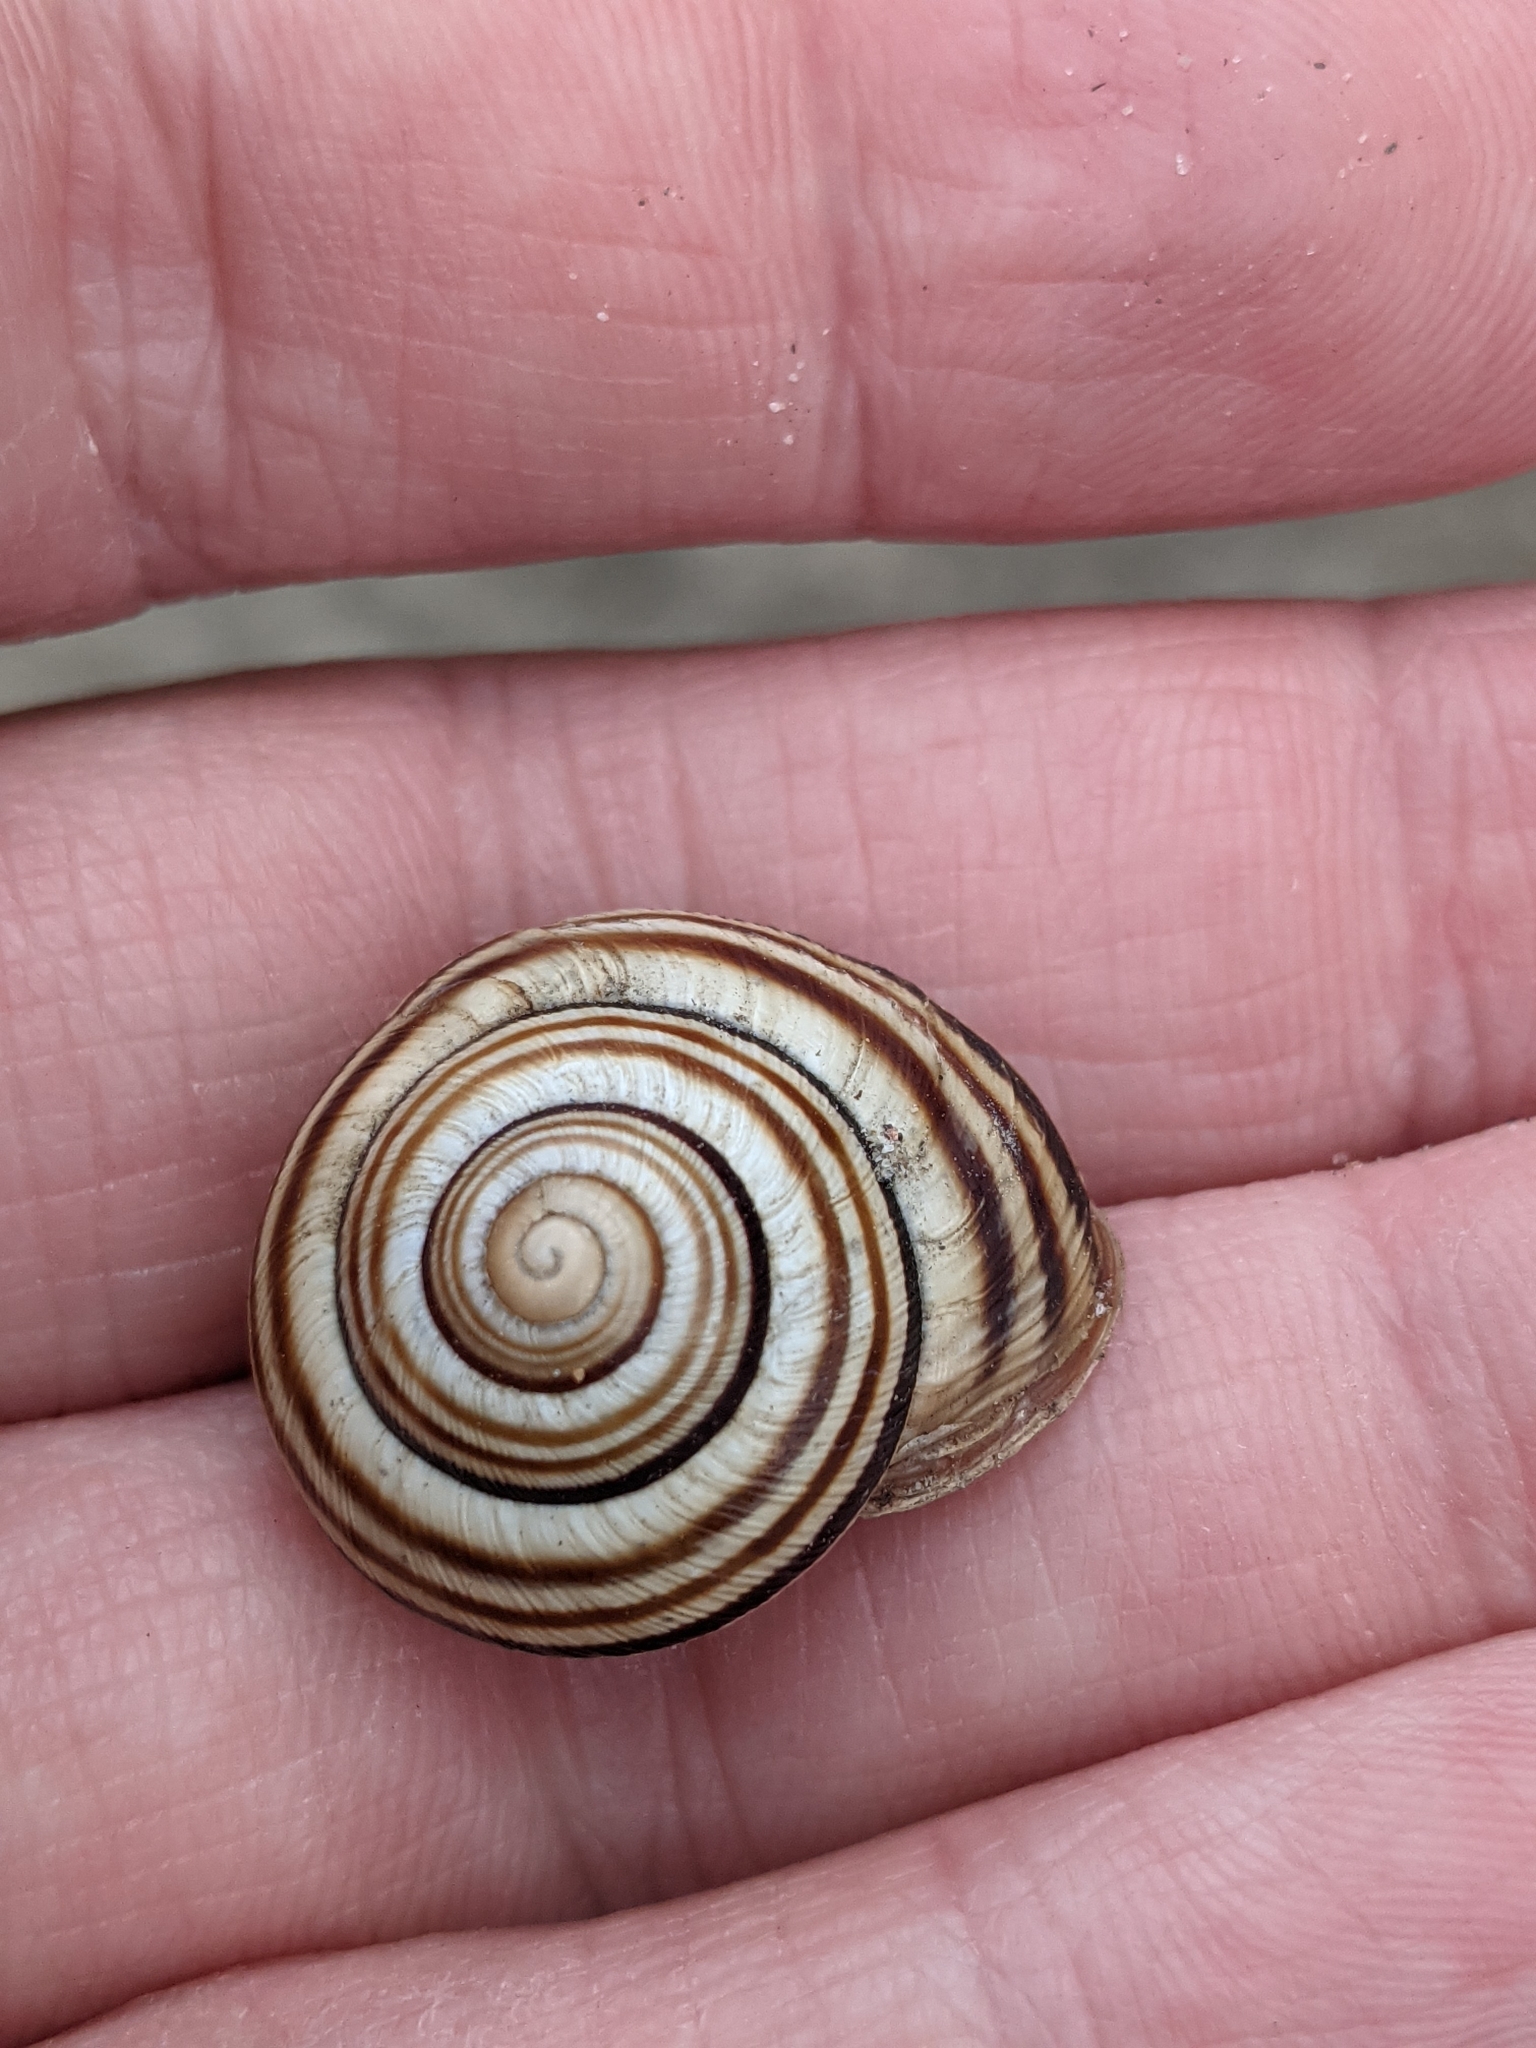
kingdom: Animalia
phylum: Mollusca
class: Gastropoda
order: Stylommatophora
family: Helicidae
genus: Caucasotachea
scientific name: Caucasotachea vindobonensis
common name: European helicid land snail
